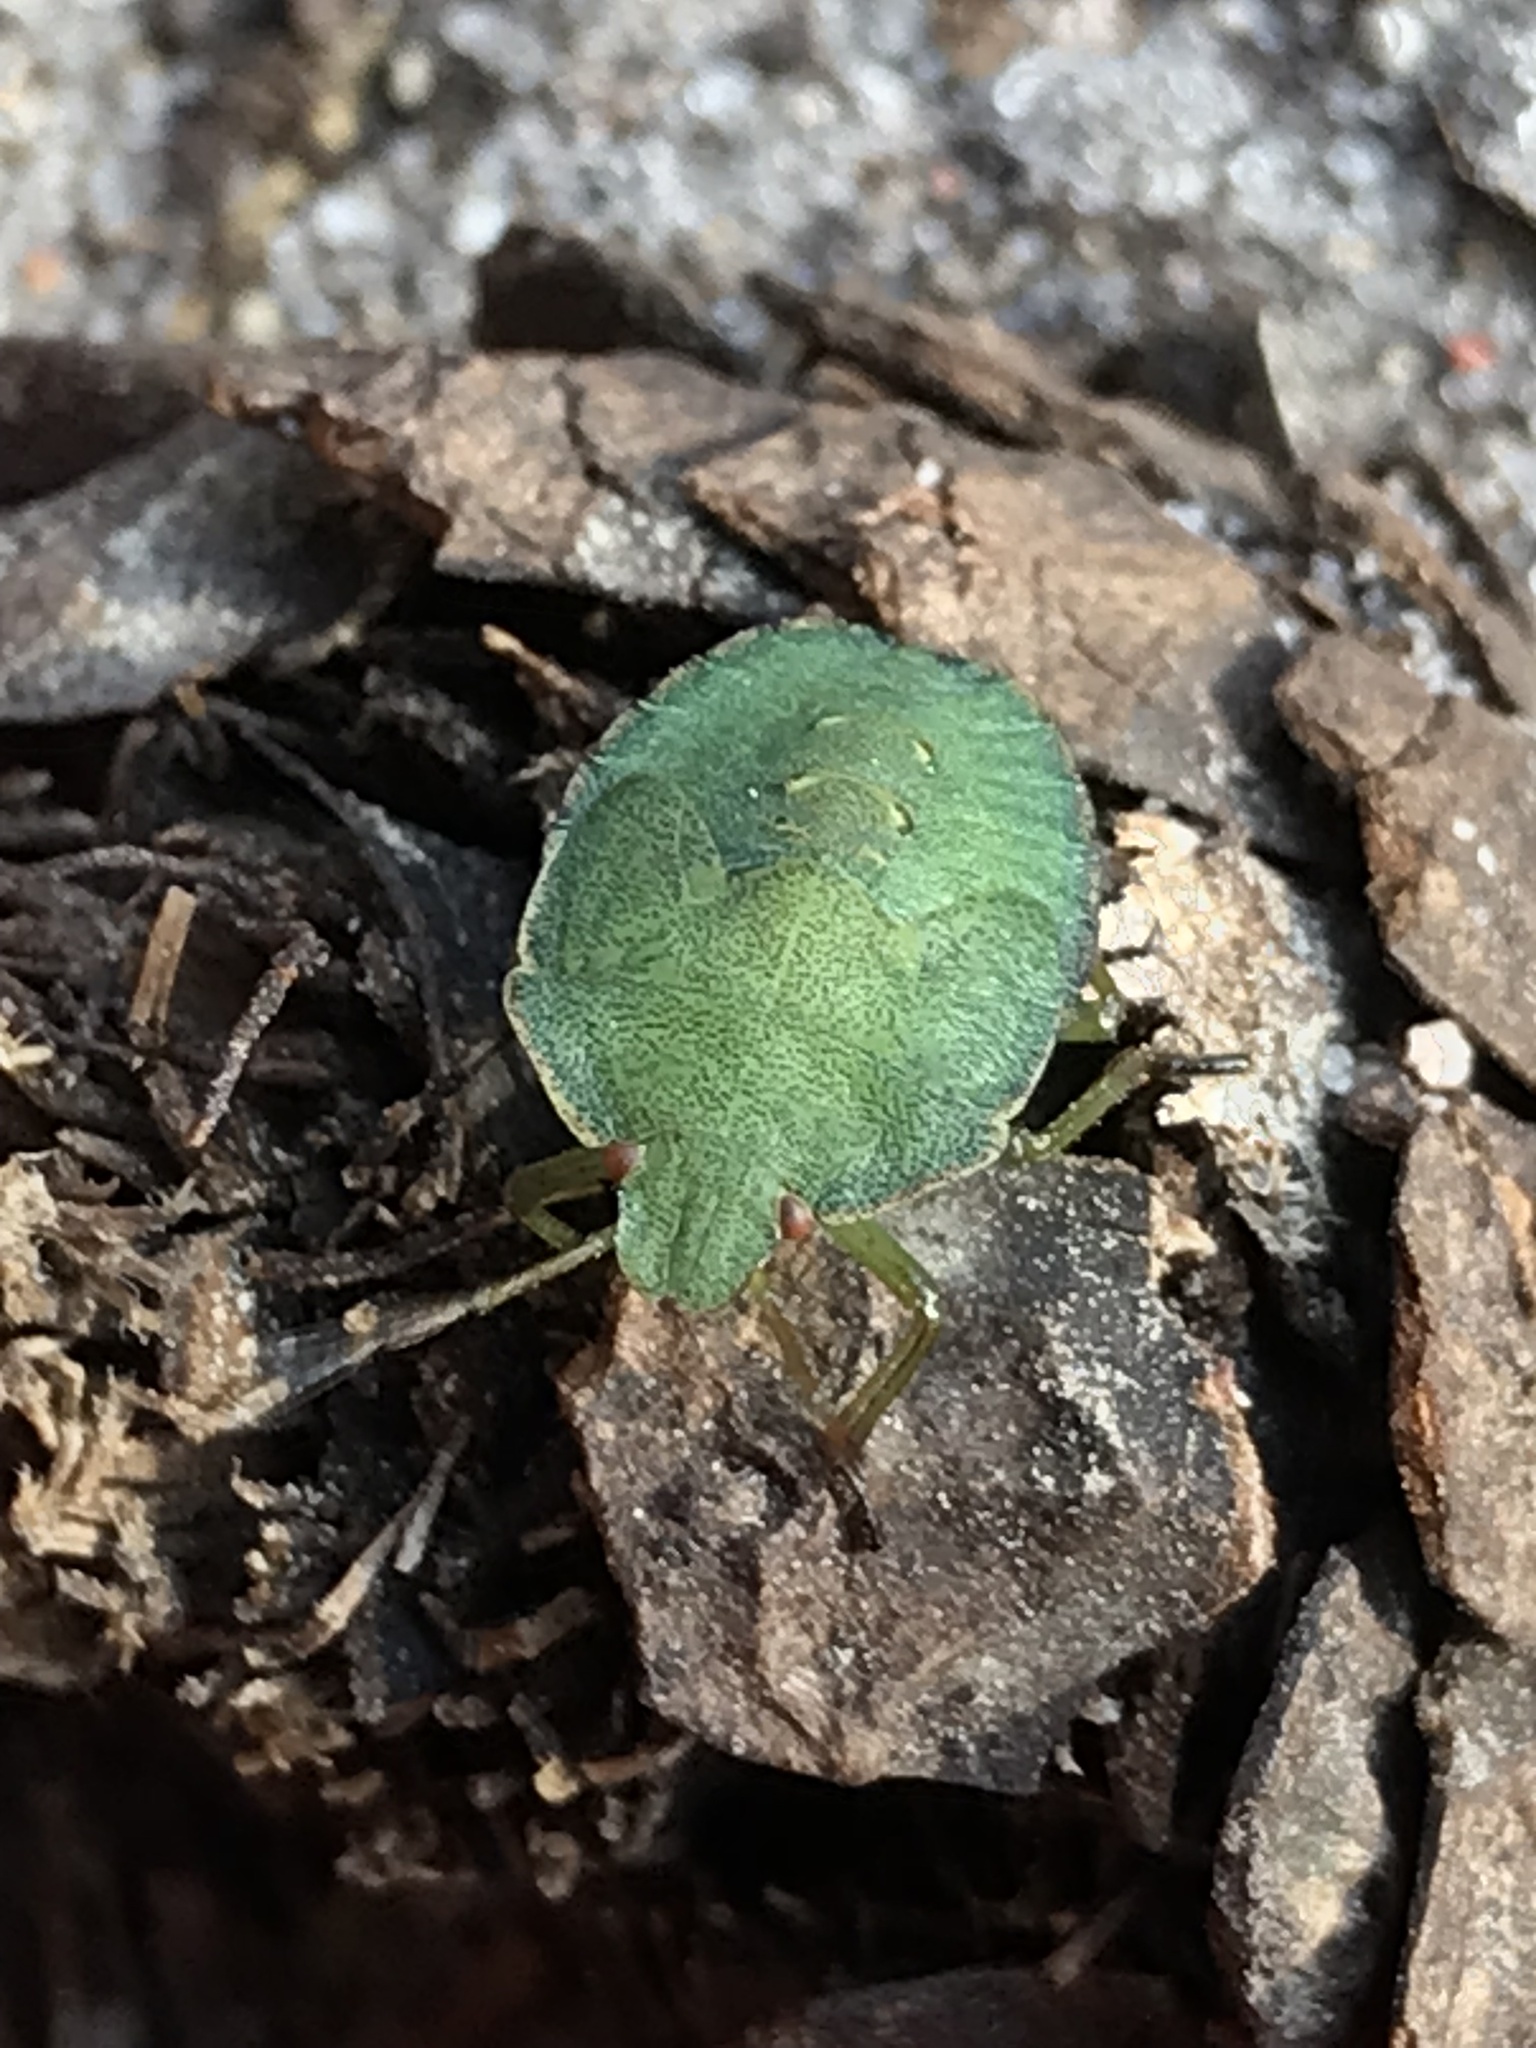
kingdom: Animalia
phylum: Arthropoda
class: Insecta
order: Hemiptera
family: Pentatomidae
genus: Palomena
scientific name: Palomena prasina
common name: Green shieldbug
